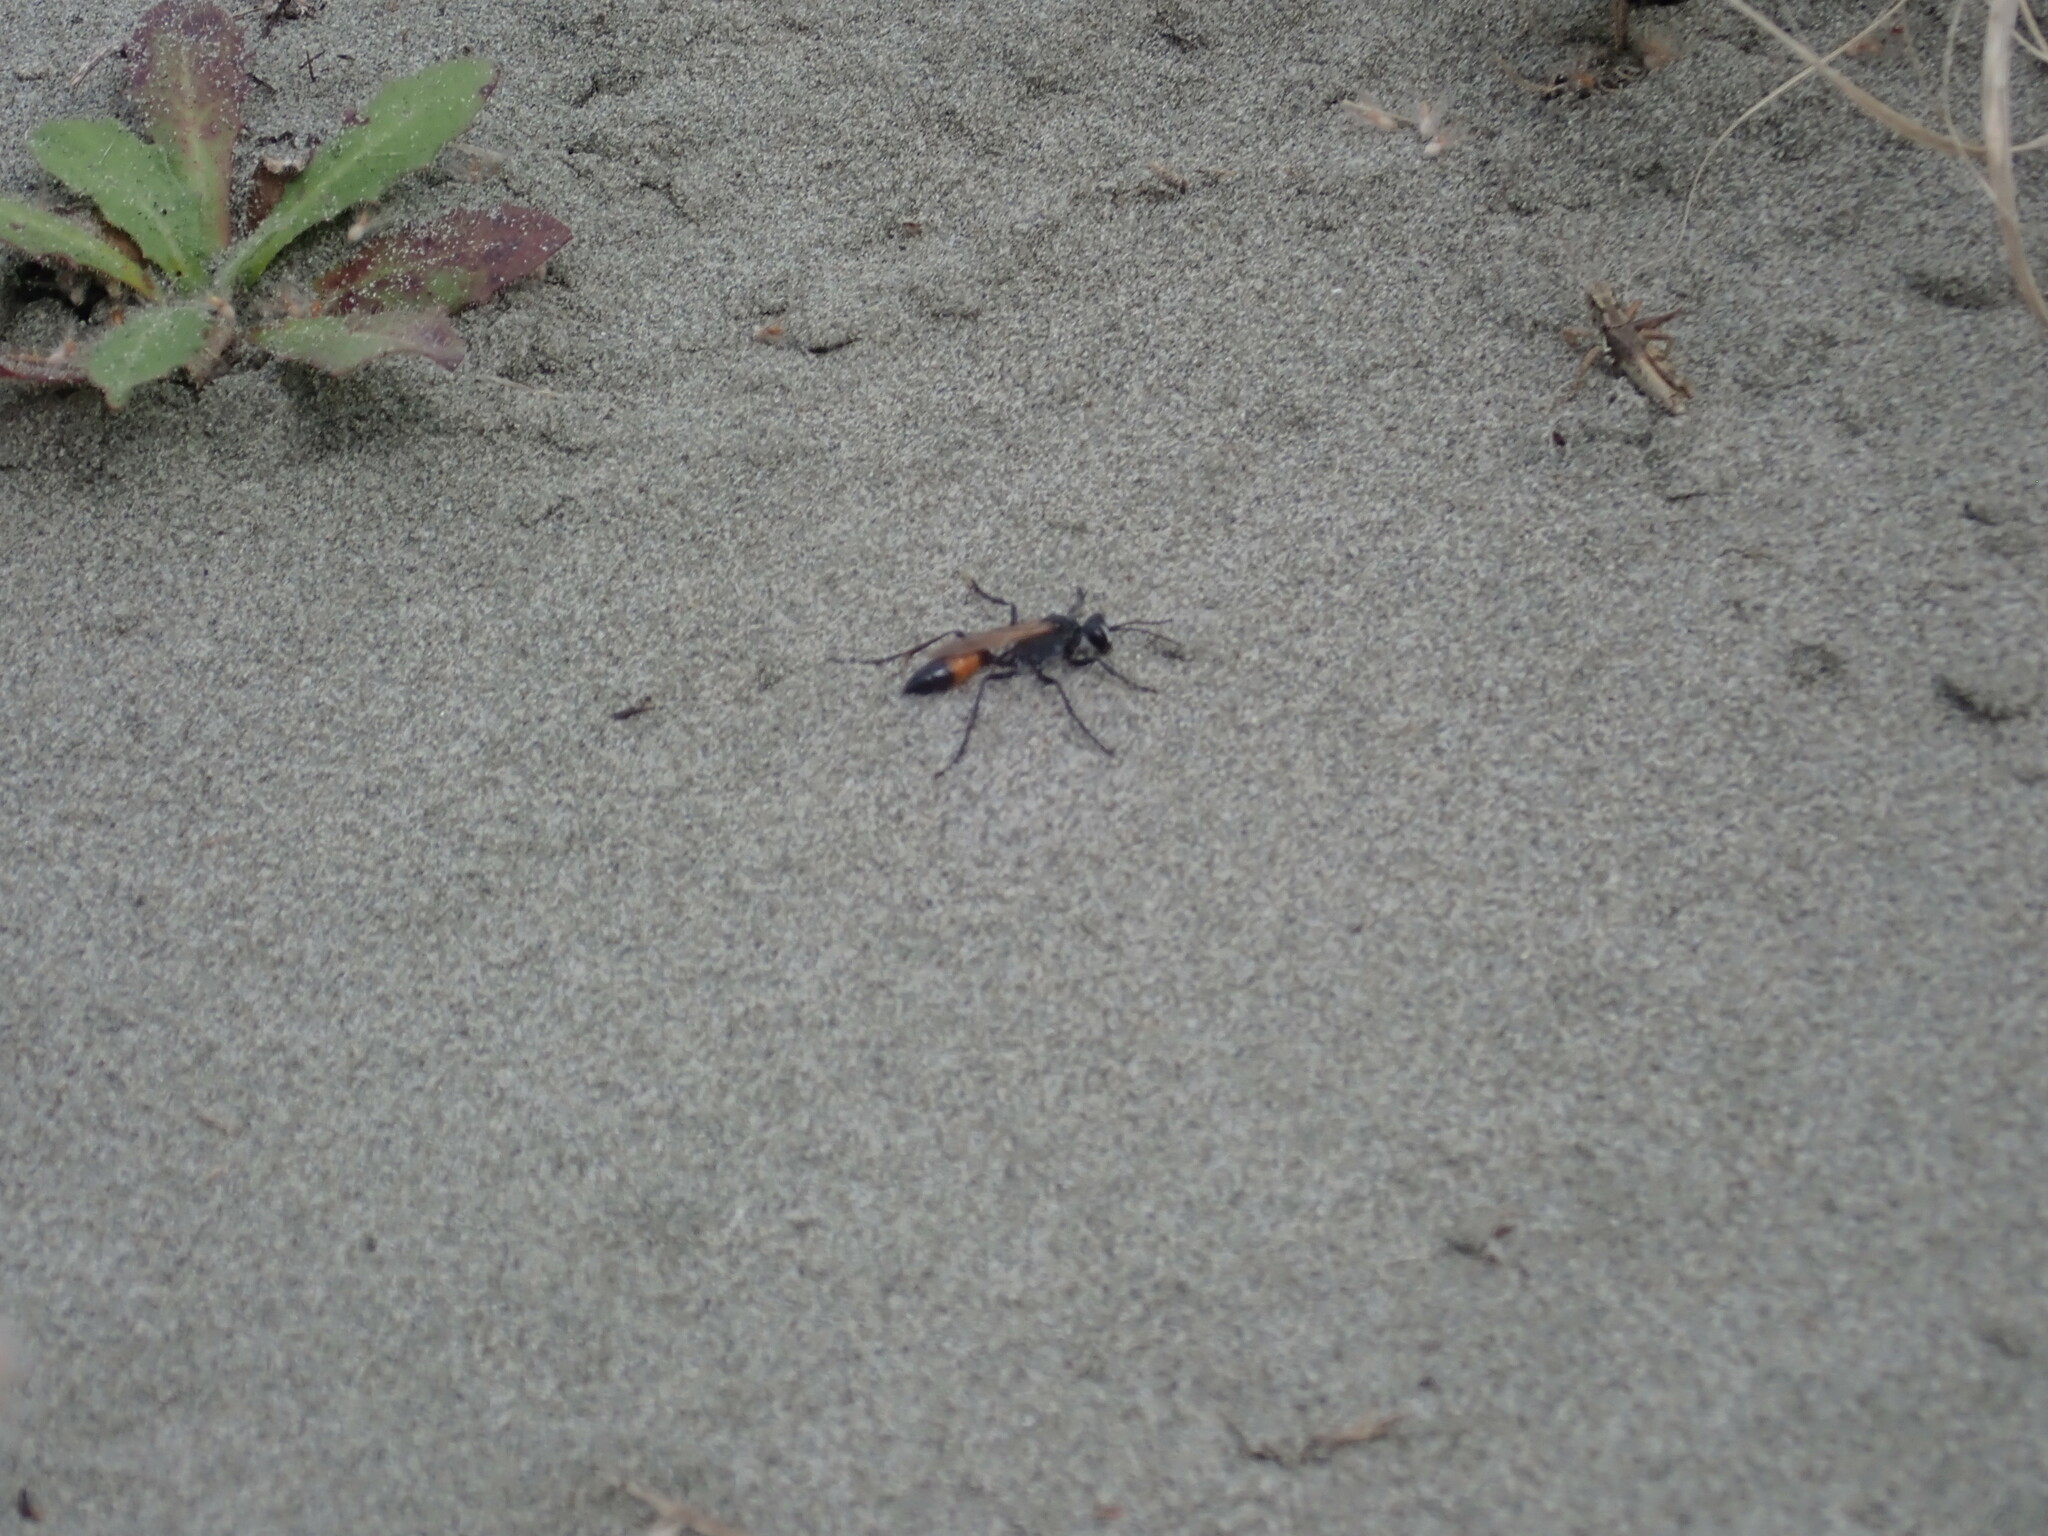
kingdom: Animalia
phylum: Arthropoda
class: Insecta
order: Hymenoptera
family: Sphecidae
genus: Podalonia
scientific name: Podalonia tydei
